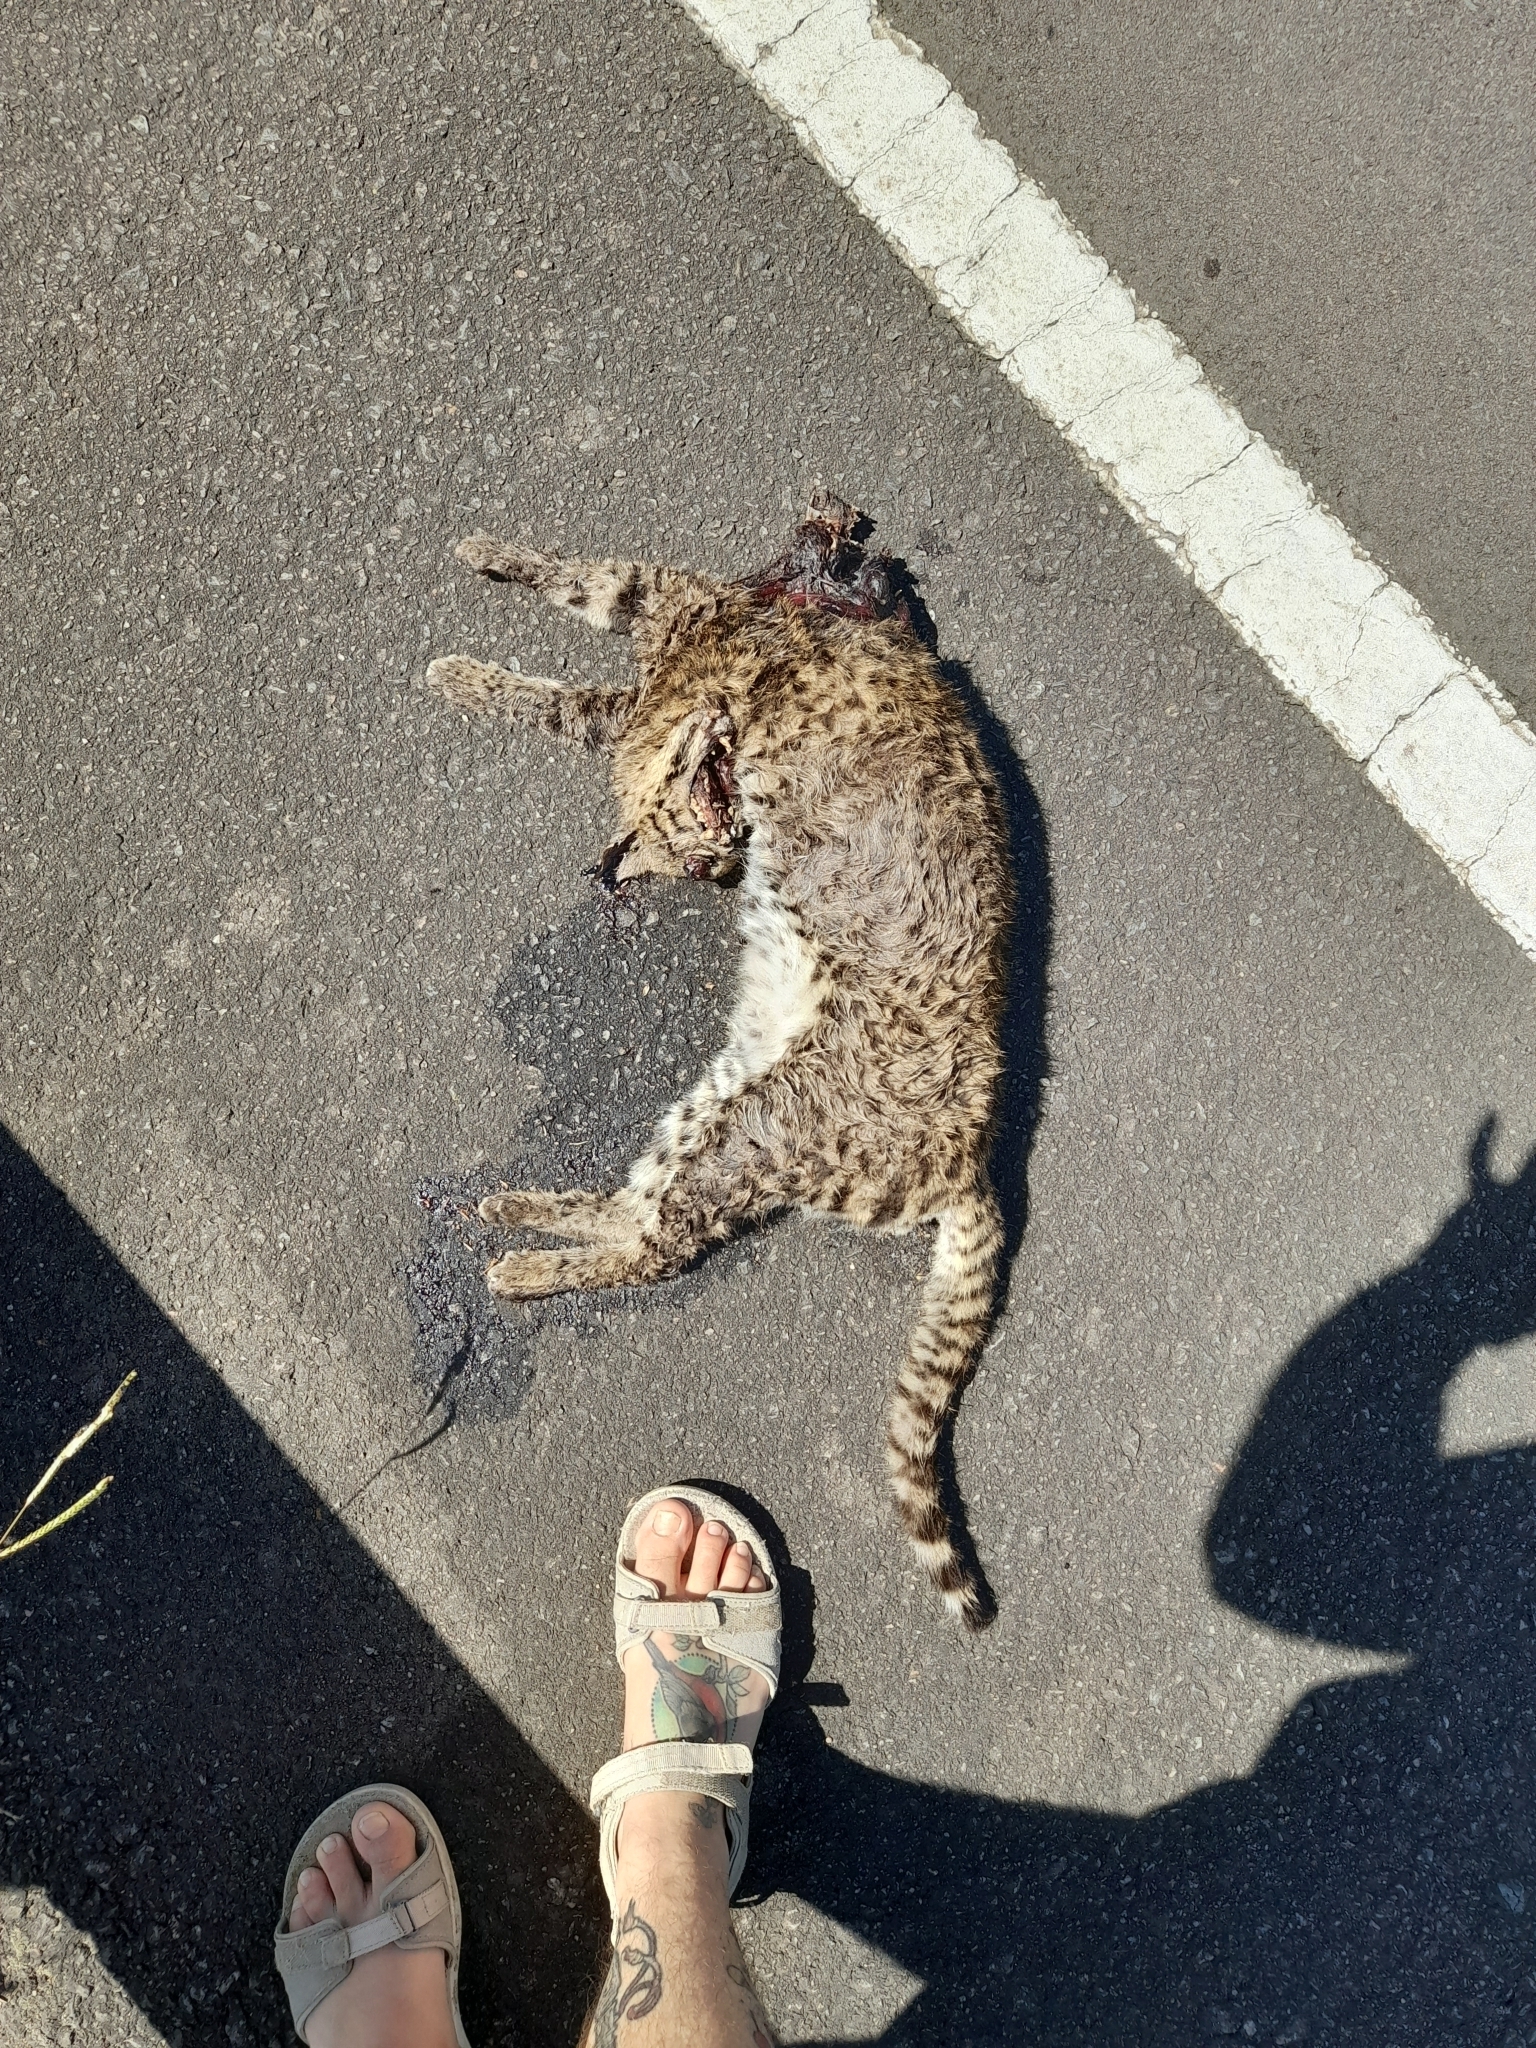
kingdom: Animalia
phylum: Chordata
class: Mammalia
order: Carnivora
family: Felidae
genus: Leopardus
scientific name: Leopardus geoffroyi
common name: Geoffroy's cat
